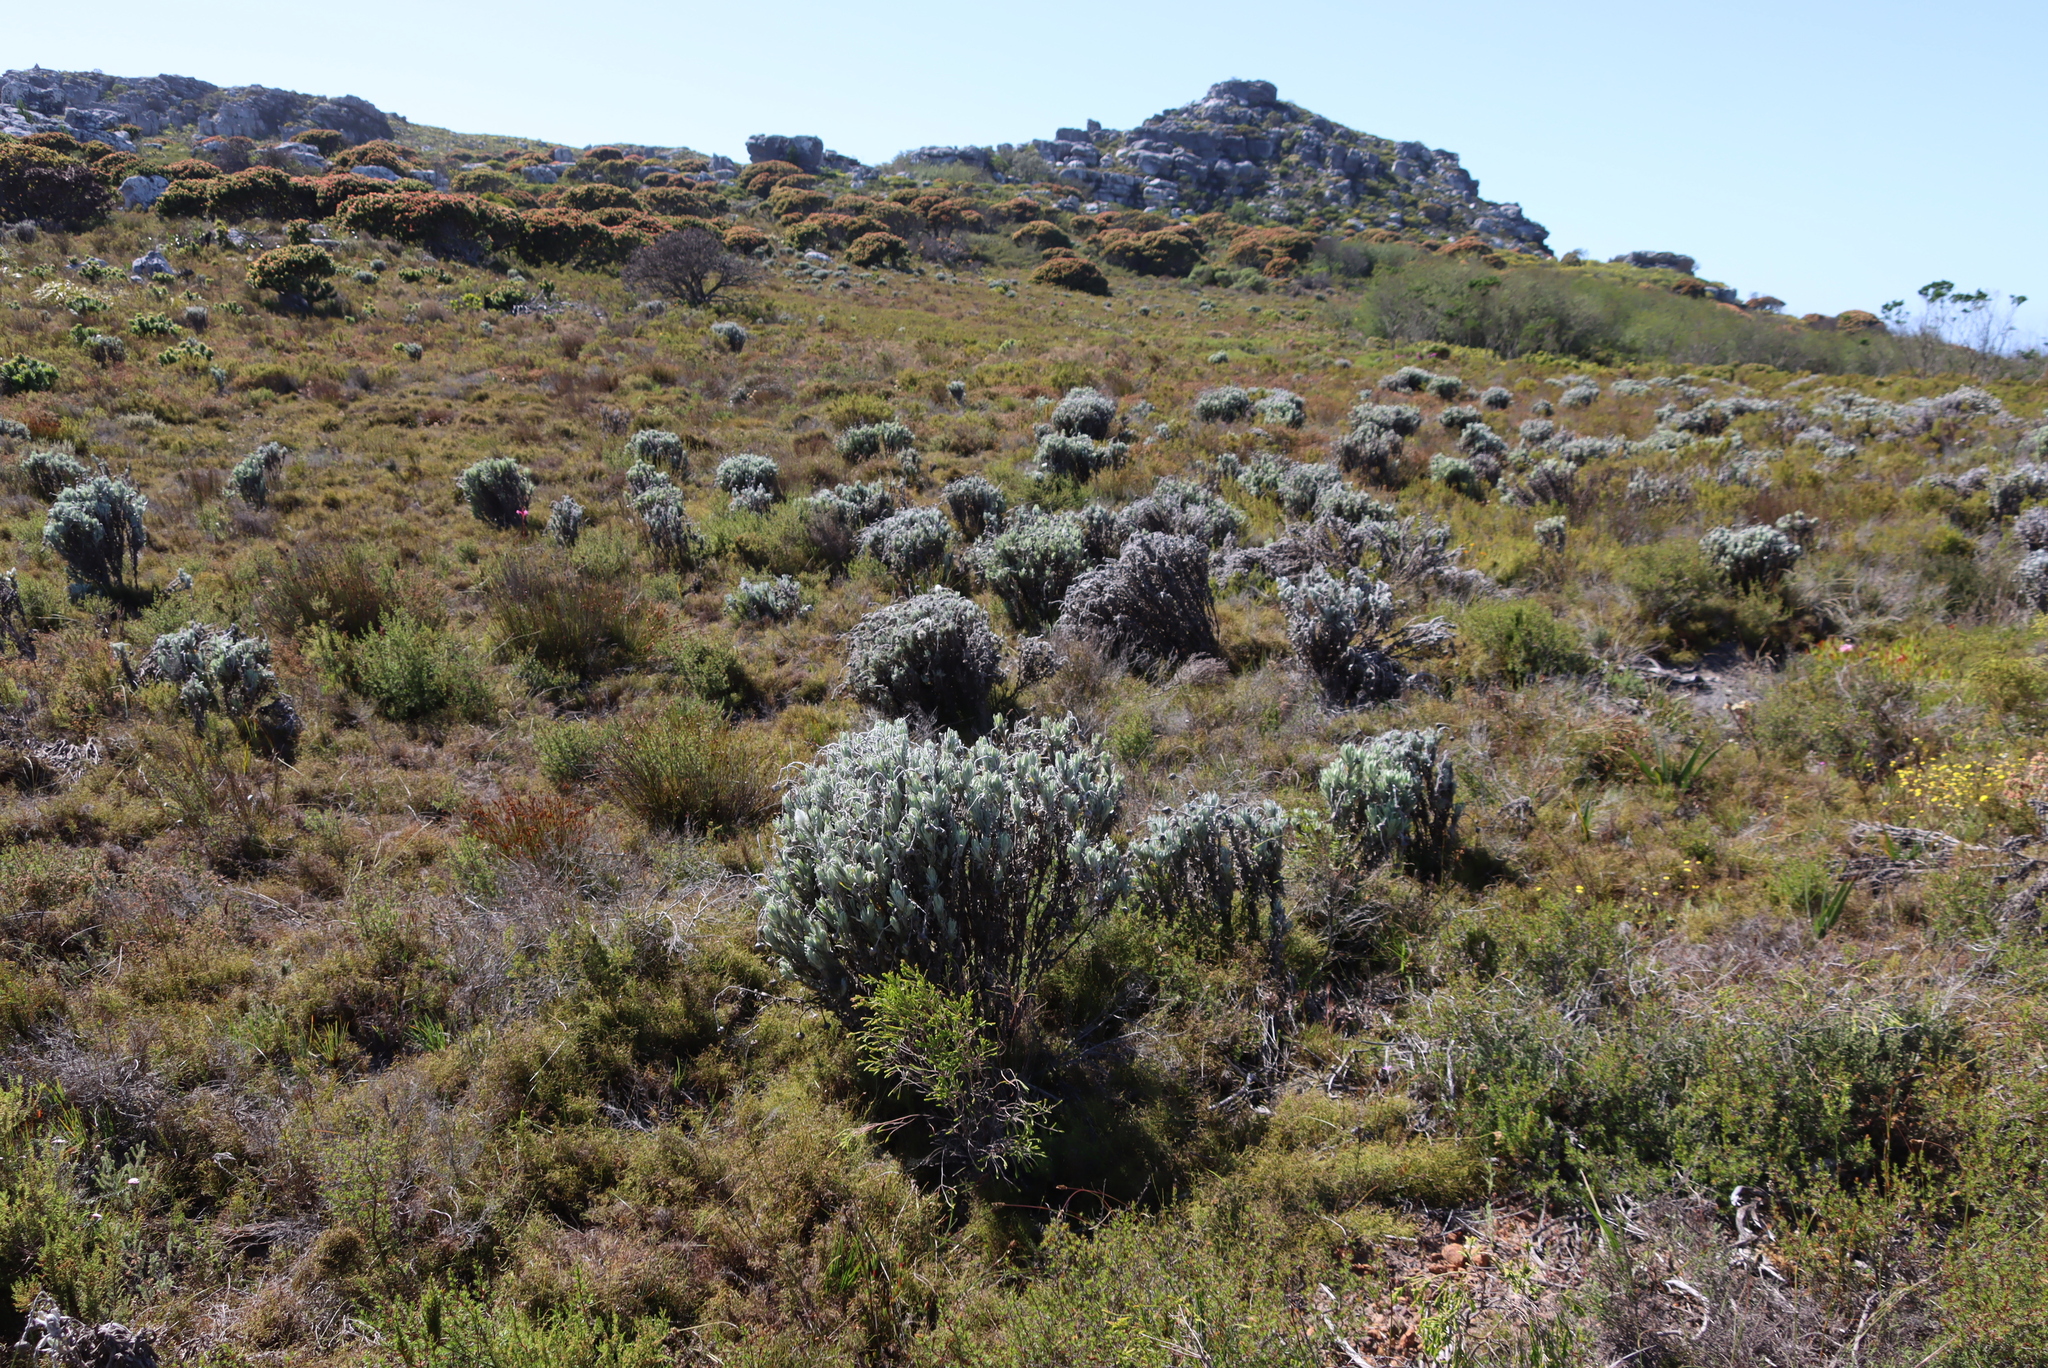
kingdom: Plantae
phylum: Tracheophyta
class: Magnoliopsida
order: Asterales
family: Asteraceae
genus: Syncarpha
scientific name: Syncarpha vestita
